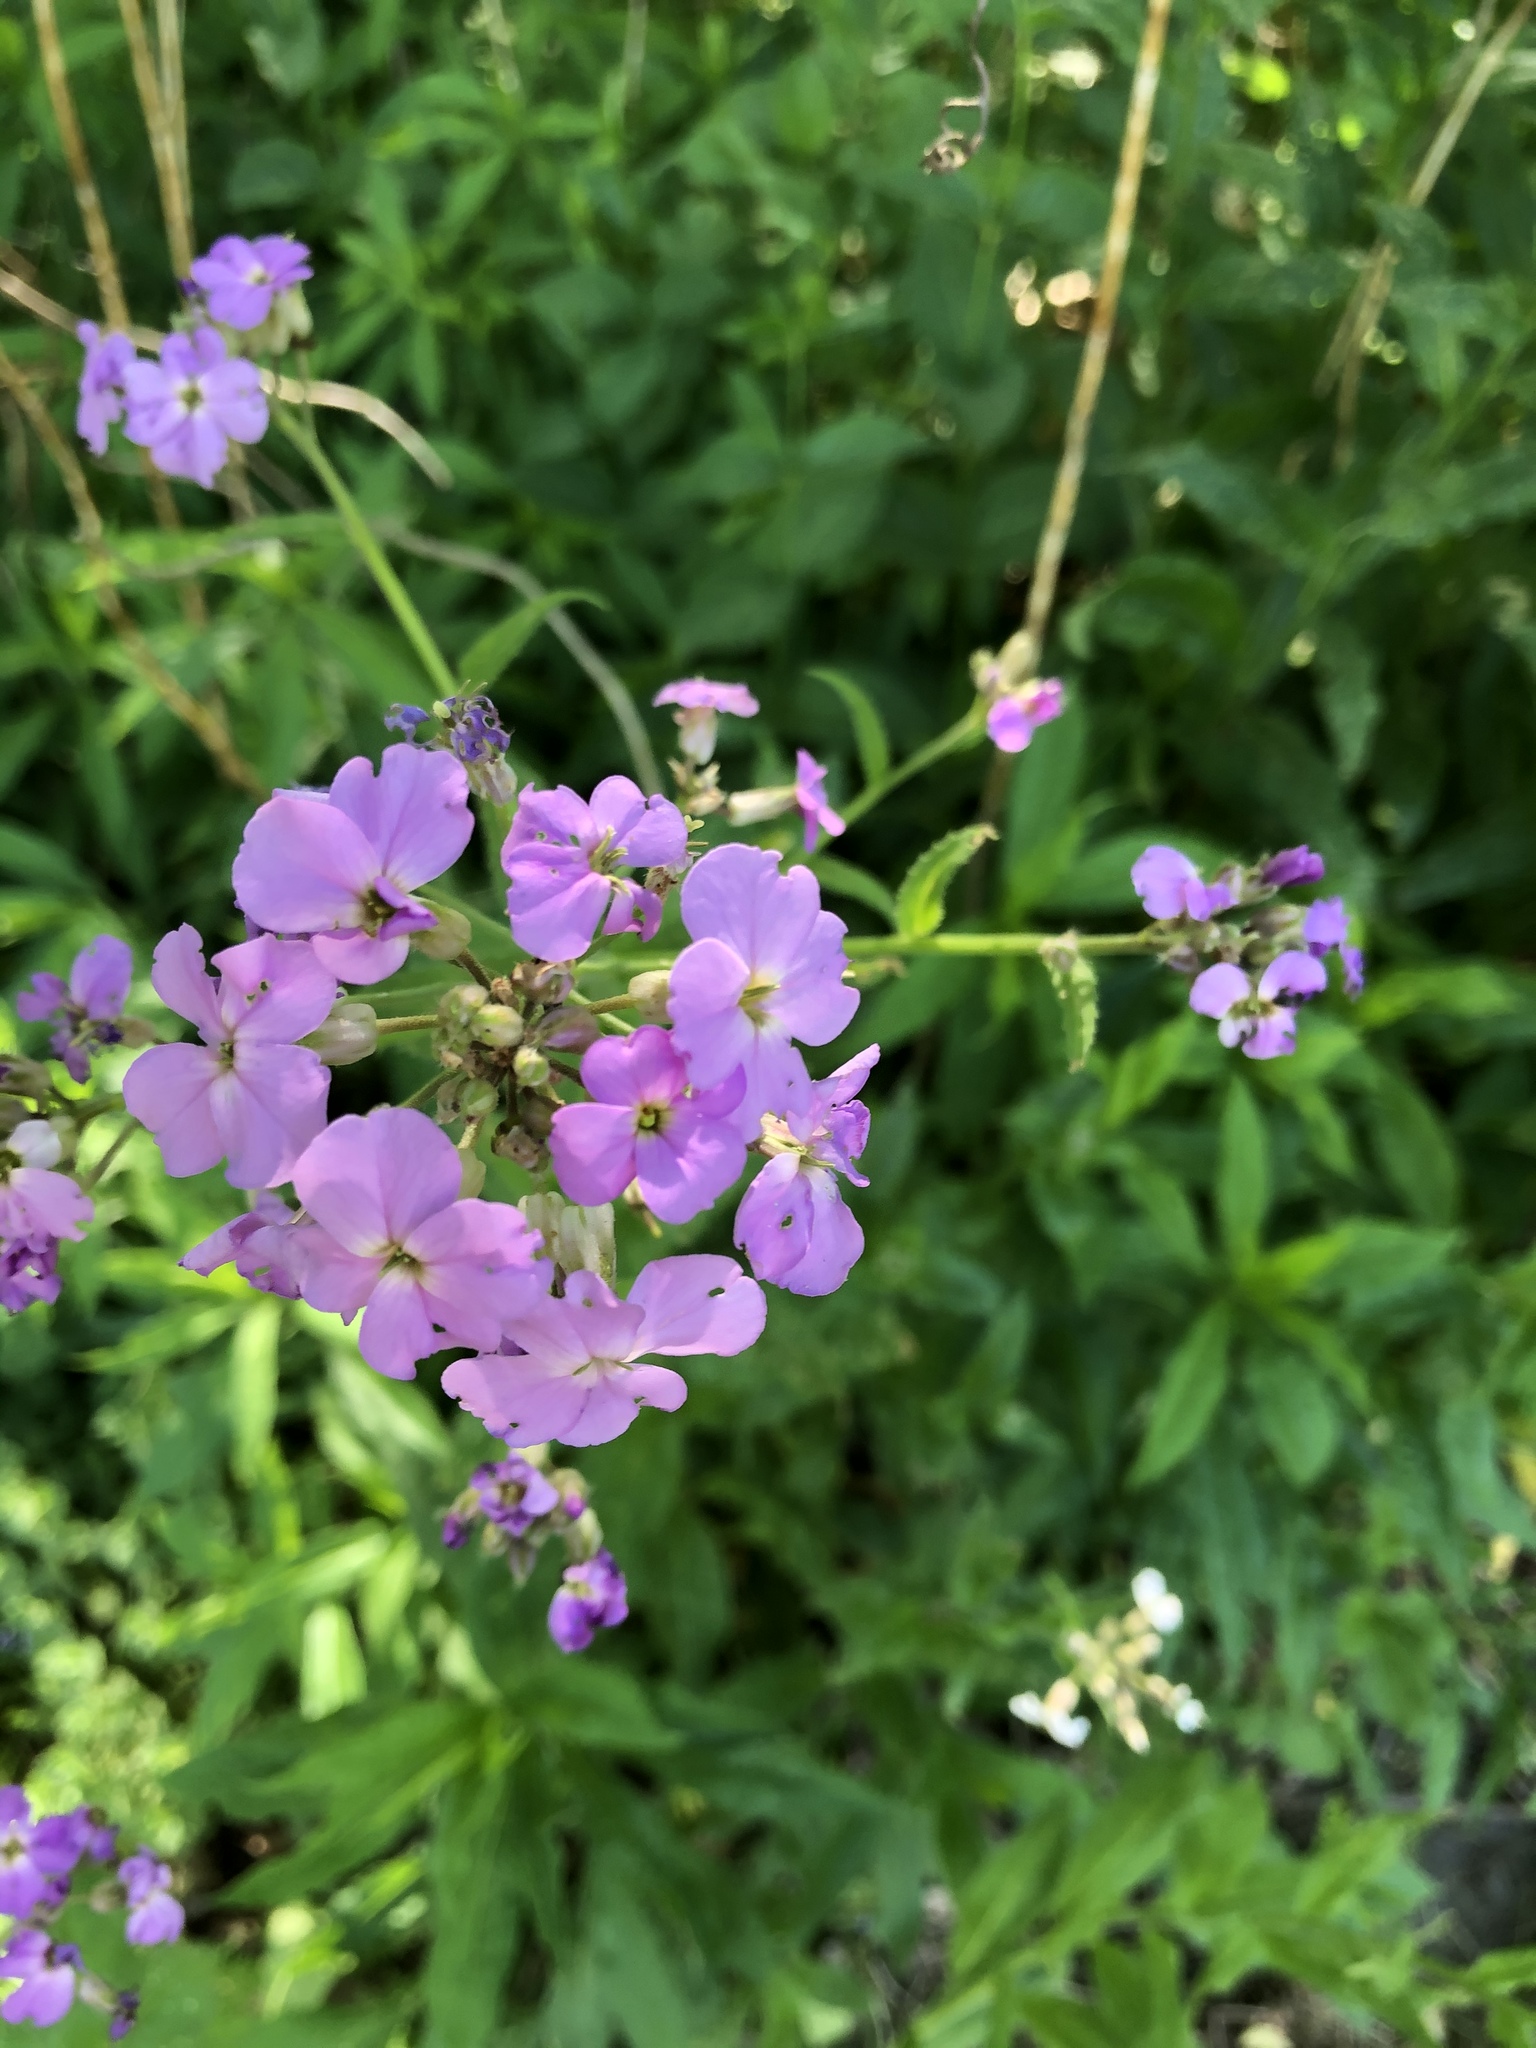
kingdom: Plantae
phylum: Tracheophyta
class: Magnoliopsida
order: Brassicales
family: Brassicaceae
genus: Hesperis
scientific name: Hesperis matronalis
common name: Dame's-violet
